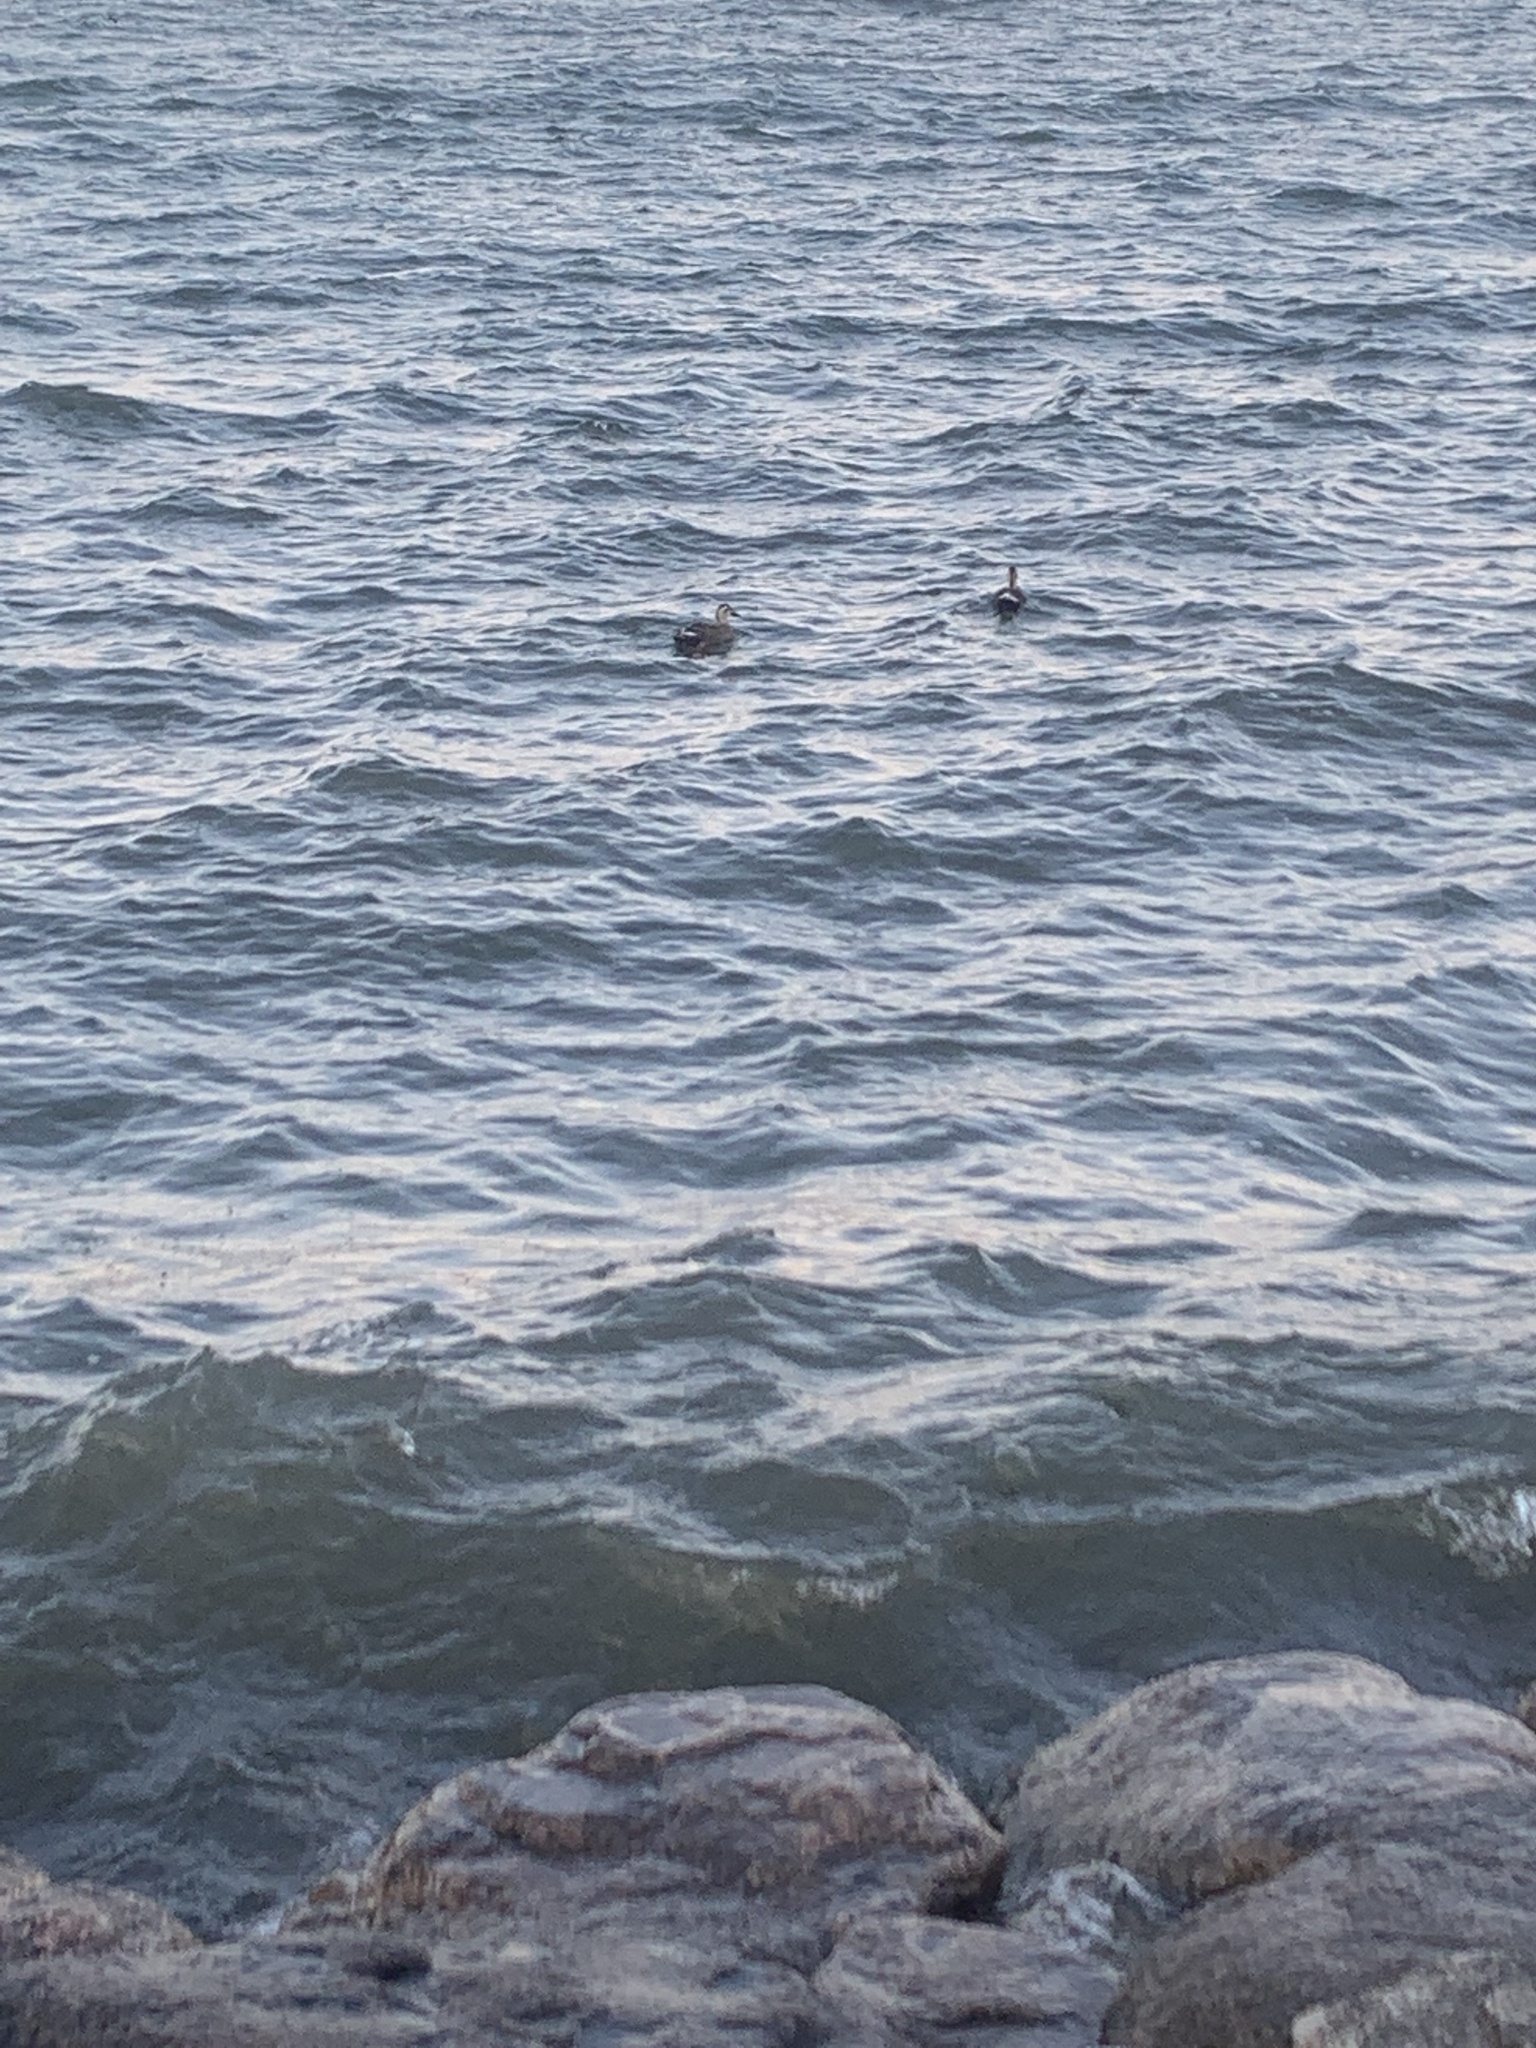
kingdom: Animalia
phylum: Chordata
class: Aves
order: Anseriformes
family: Anatidae
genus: Anas
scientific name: Anas zonorhyncha
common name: Eastern spot-billed duck
